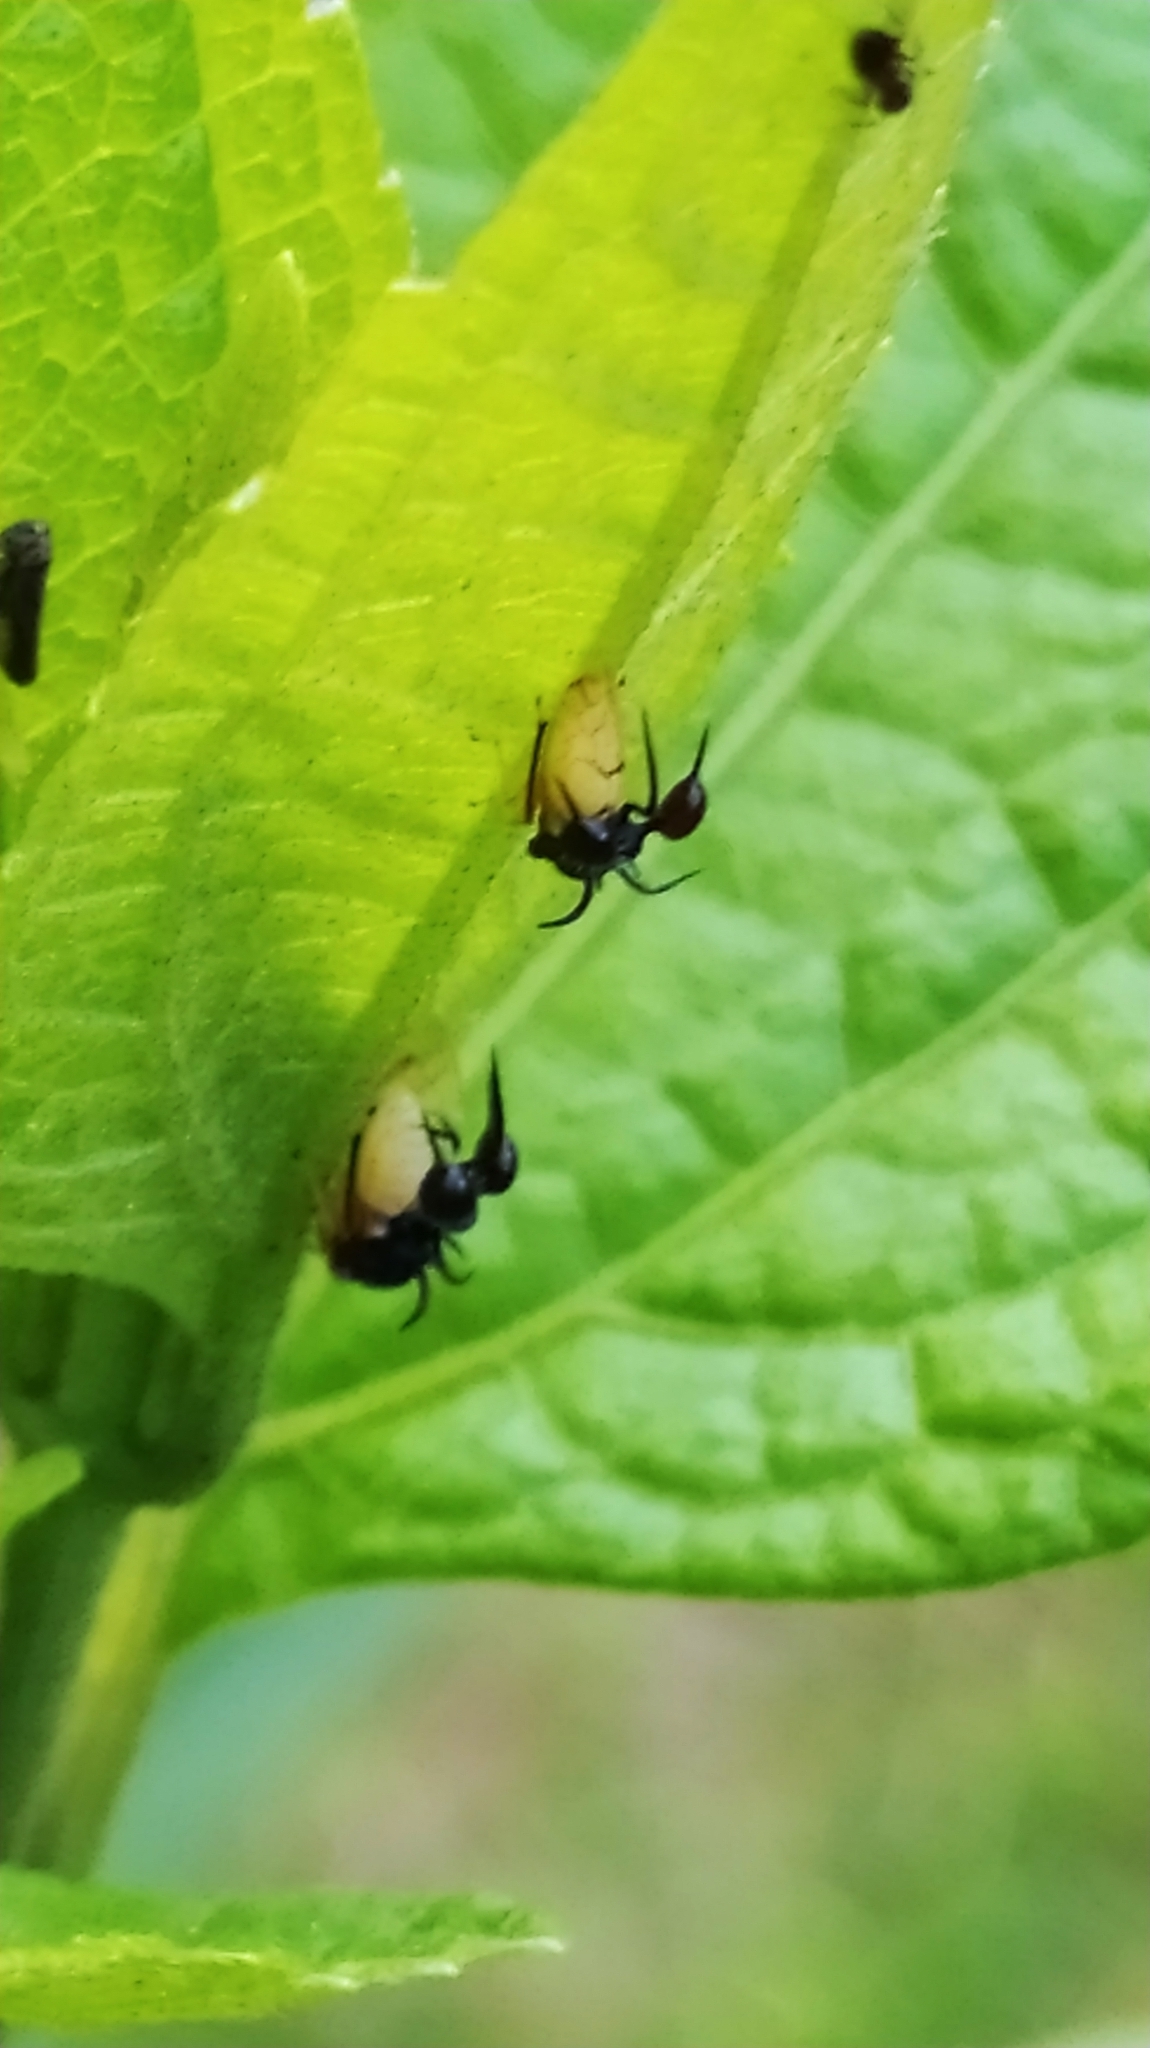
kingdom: Animalia
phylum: Arthropoda
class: Insecta
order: Hemiptera
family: Membracidae
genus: Cyphonia
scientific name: Cyphonia clavata
